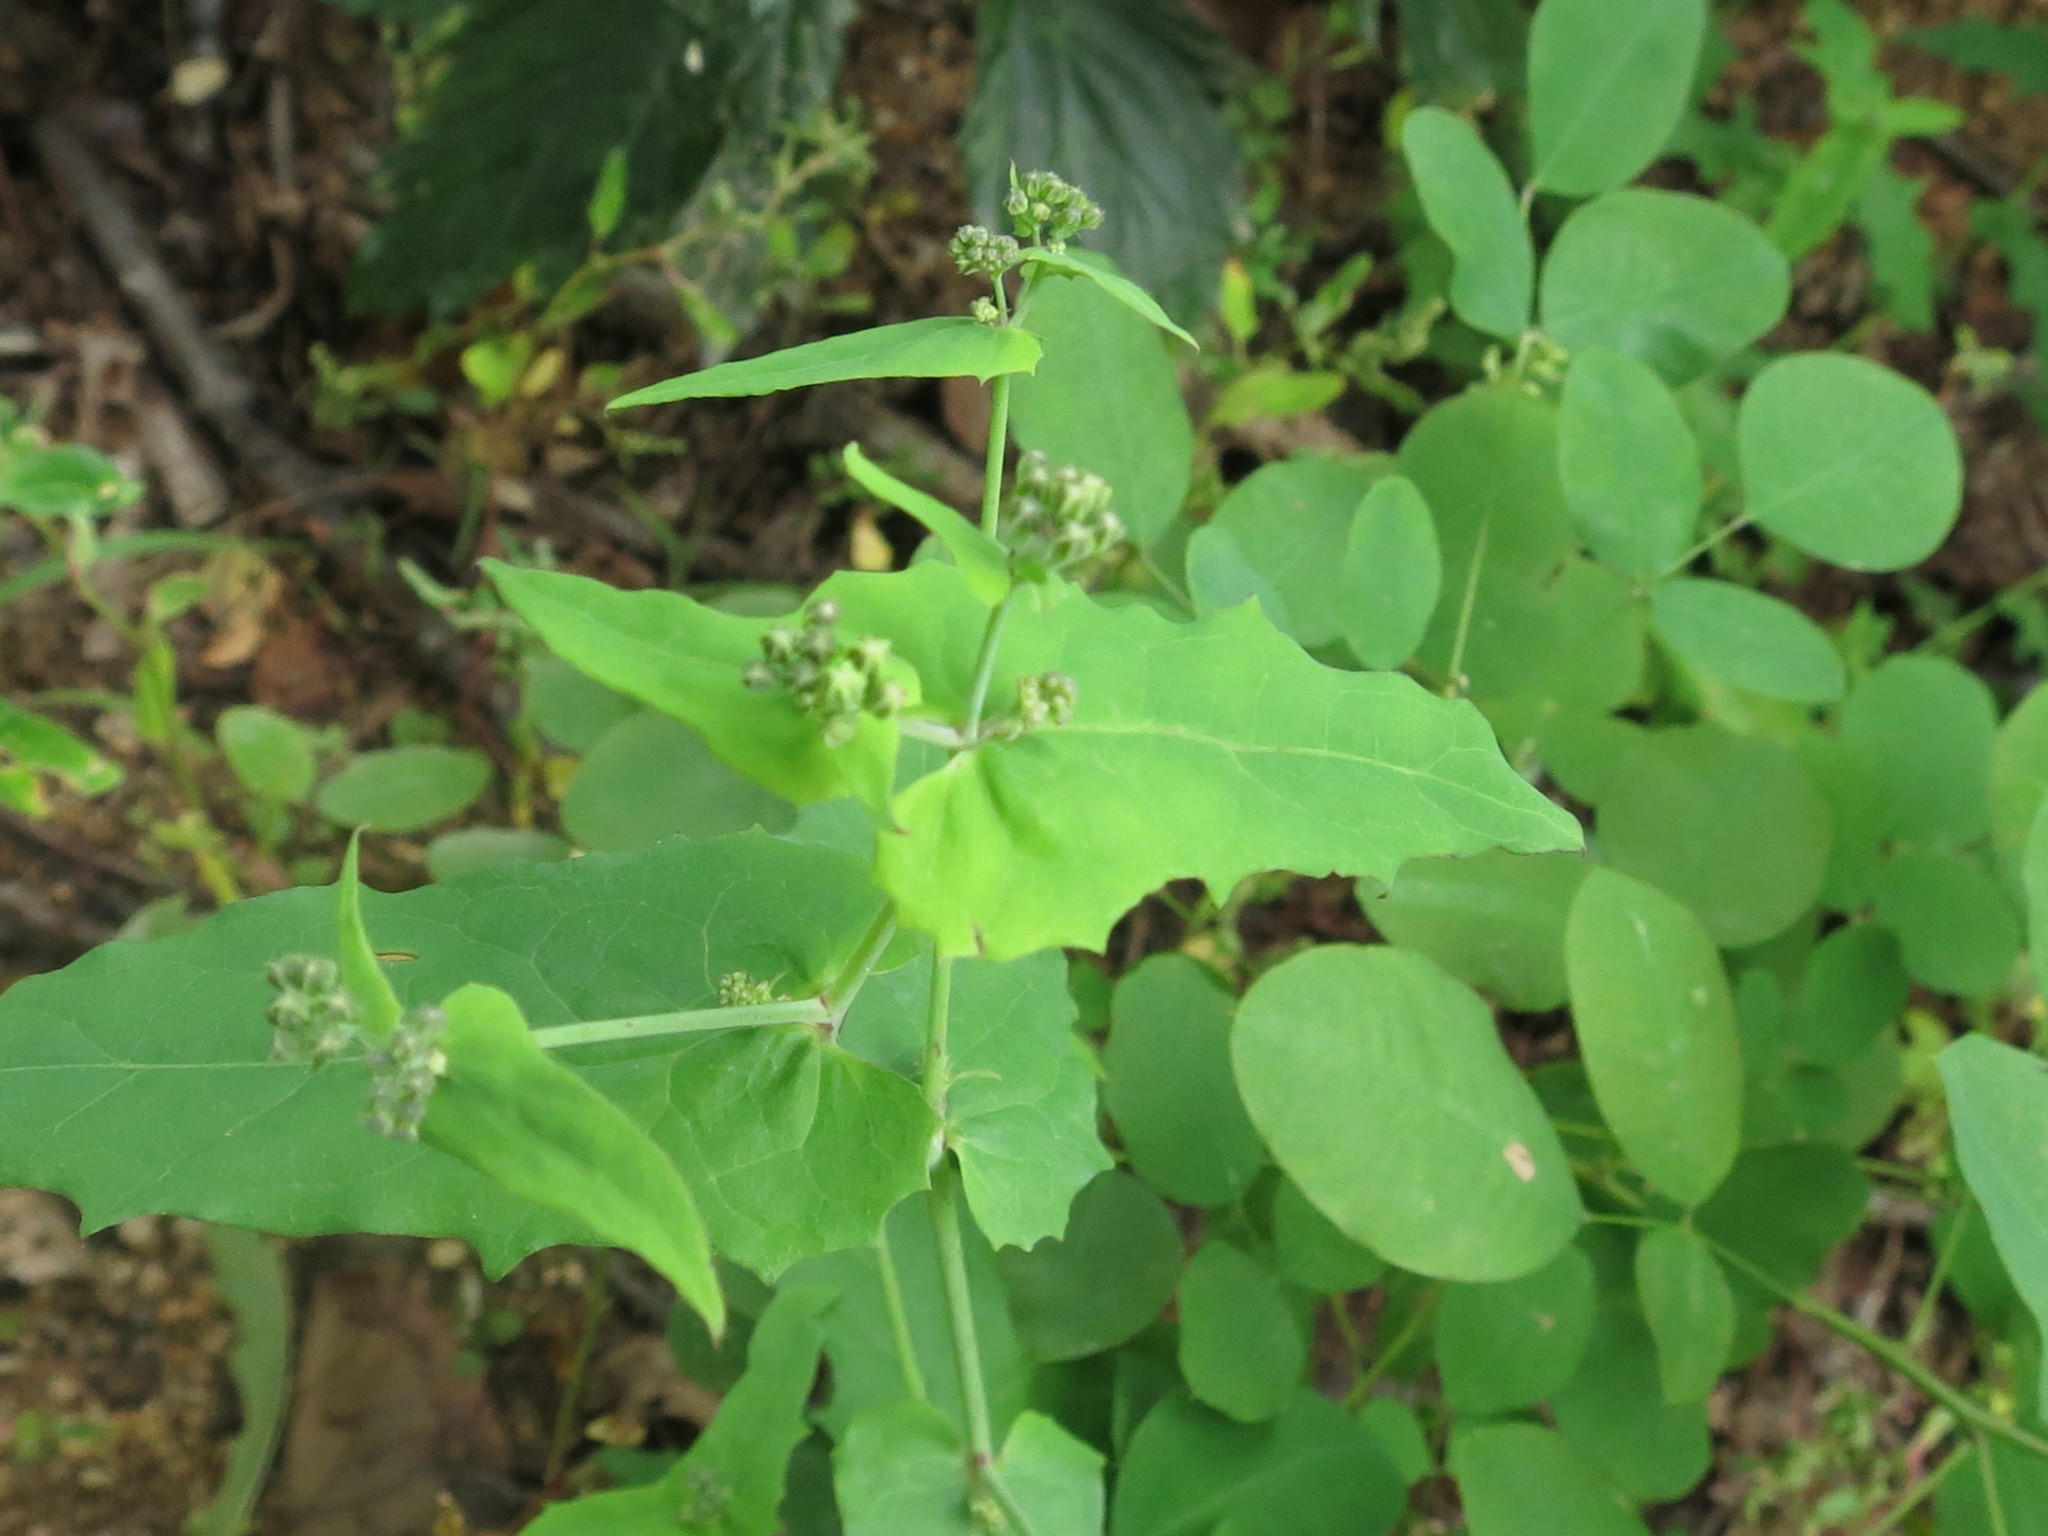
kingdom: Plantae
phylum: Tracheophyta
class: Magnoliopsida
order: Asterales
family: Asteraceae
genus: Crepidiastrum
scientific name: Crepidiastrum denticulatum
